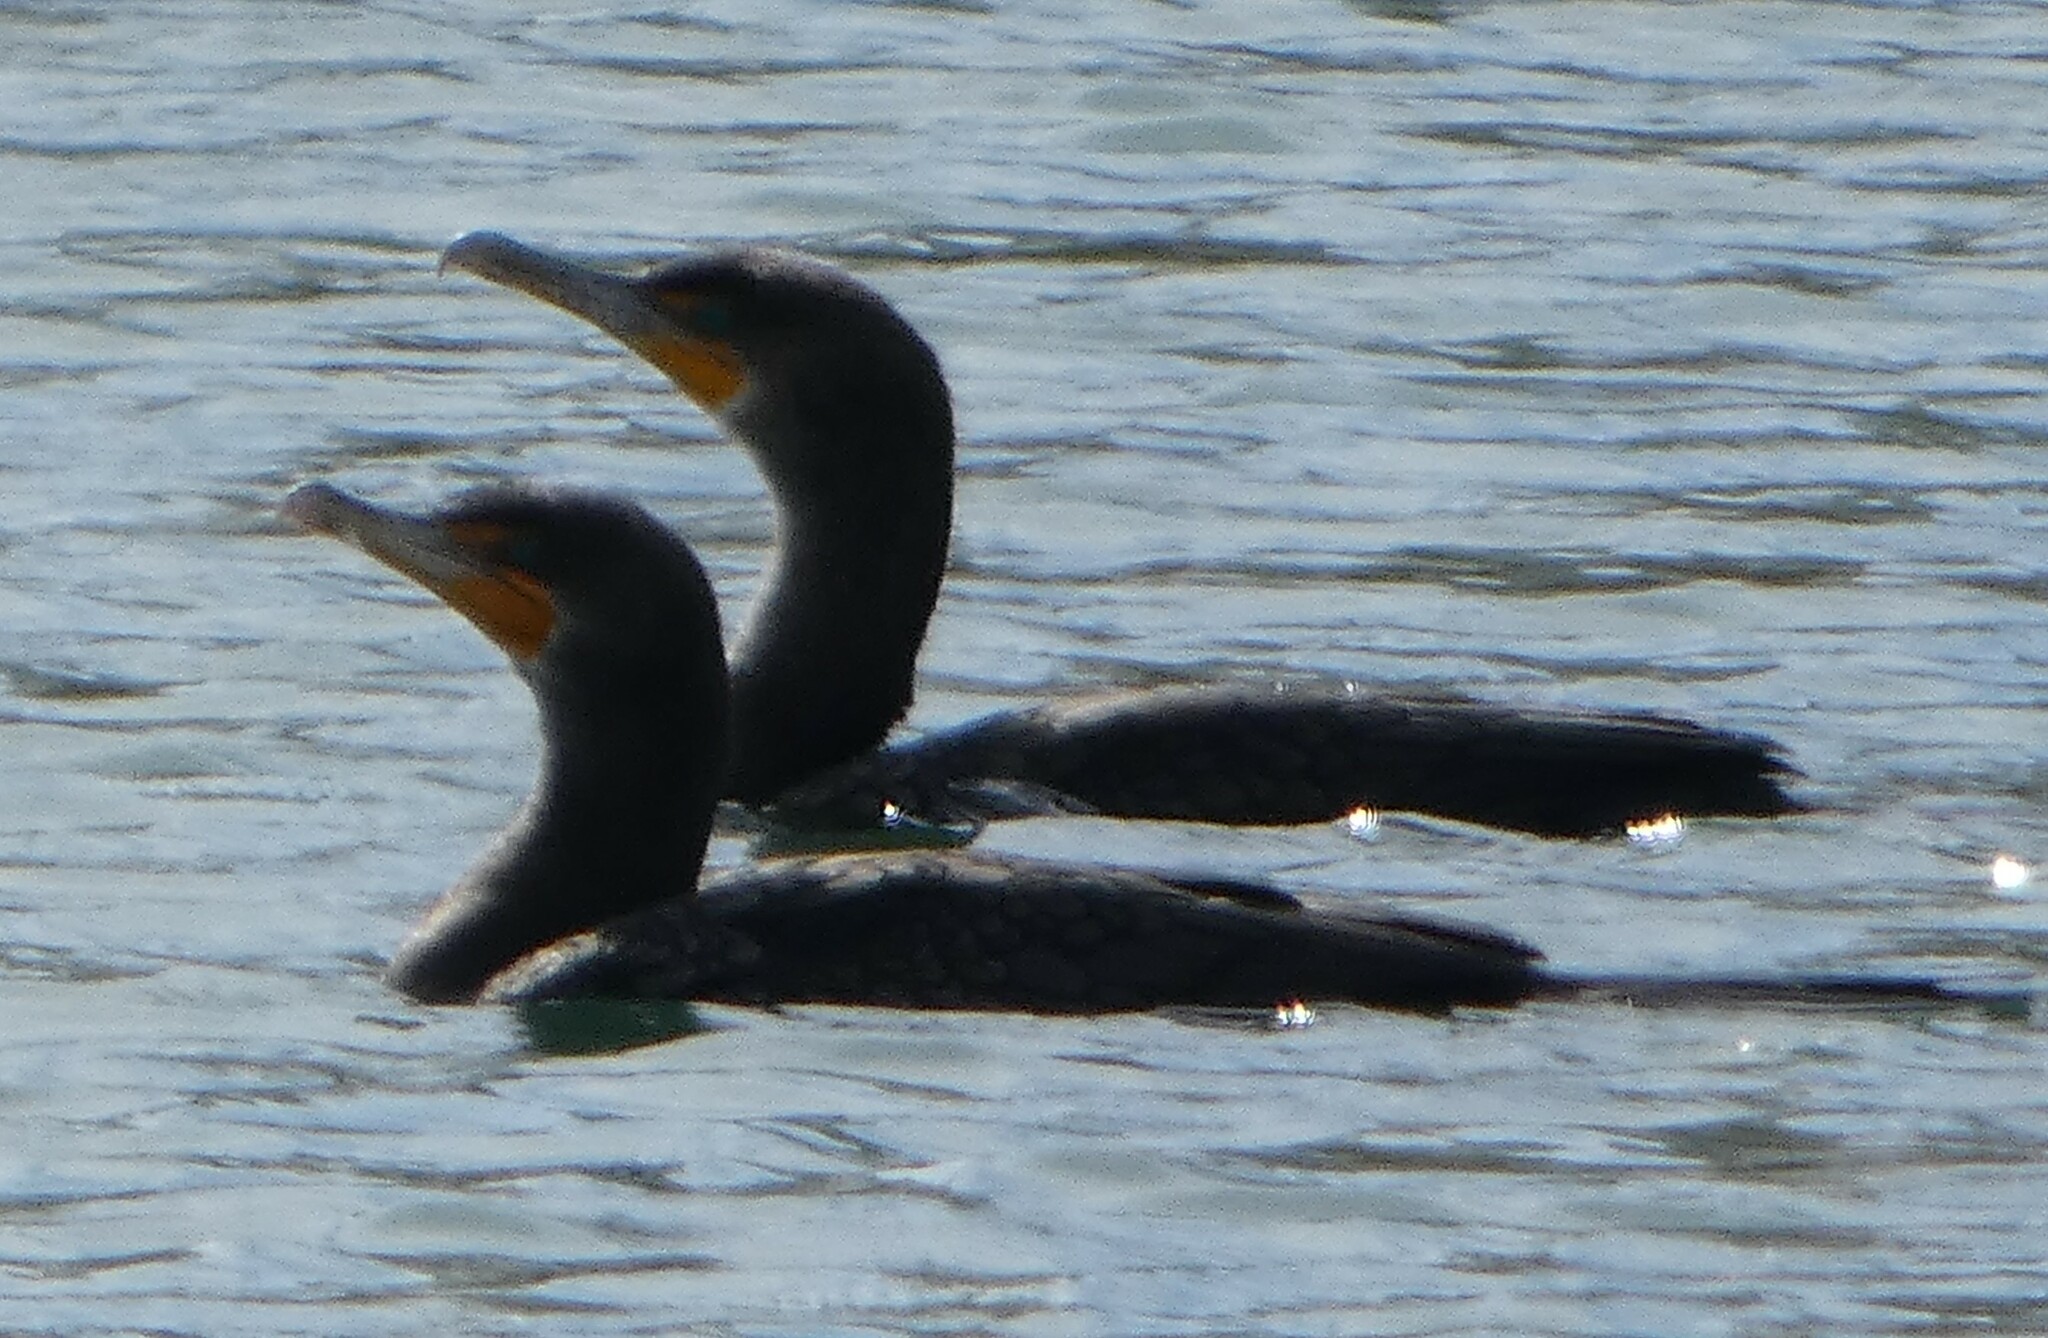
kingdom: Animalia
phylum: Chordata
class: Aves
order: Suliformes
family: Phalacrocoracidae
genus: Phalacrocorax
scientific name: Phalacrocorax auritus
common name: Double-crested cormorant
